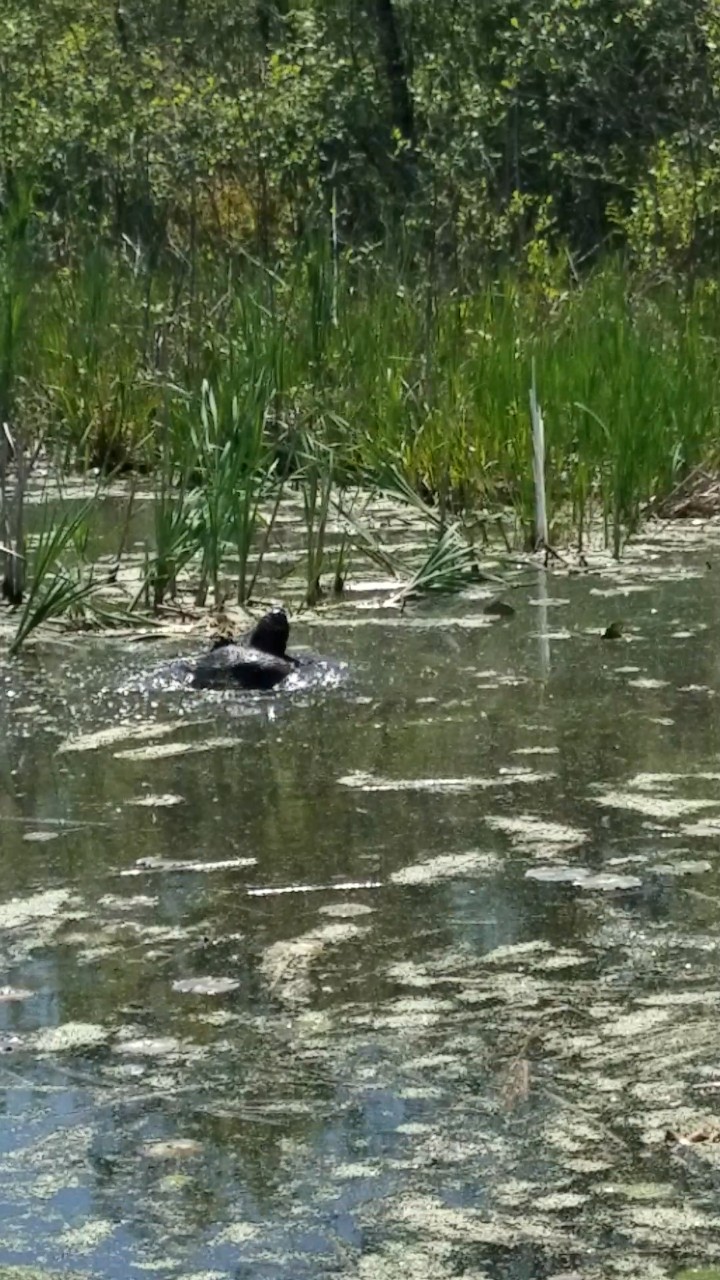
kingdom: Animalia
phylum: Chordata
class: Testudines
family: Chelydridae
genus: Chelydra
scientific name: Chelydra serpentina
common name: Common snapping turtle
